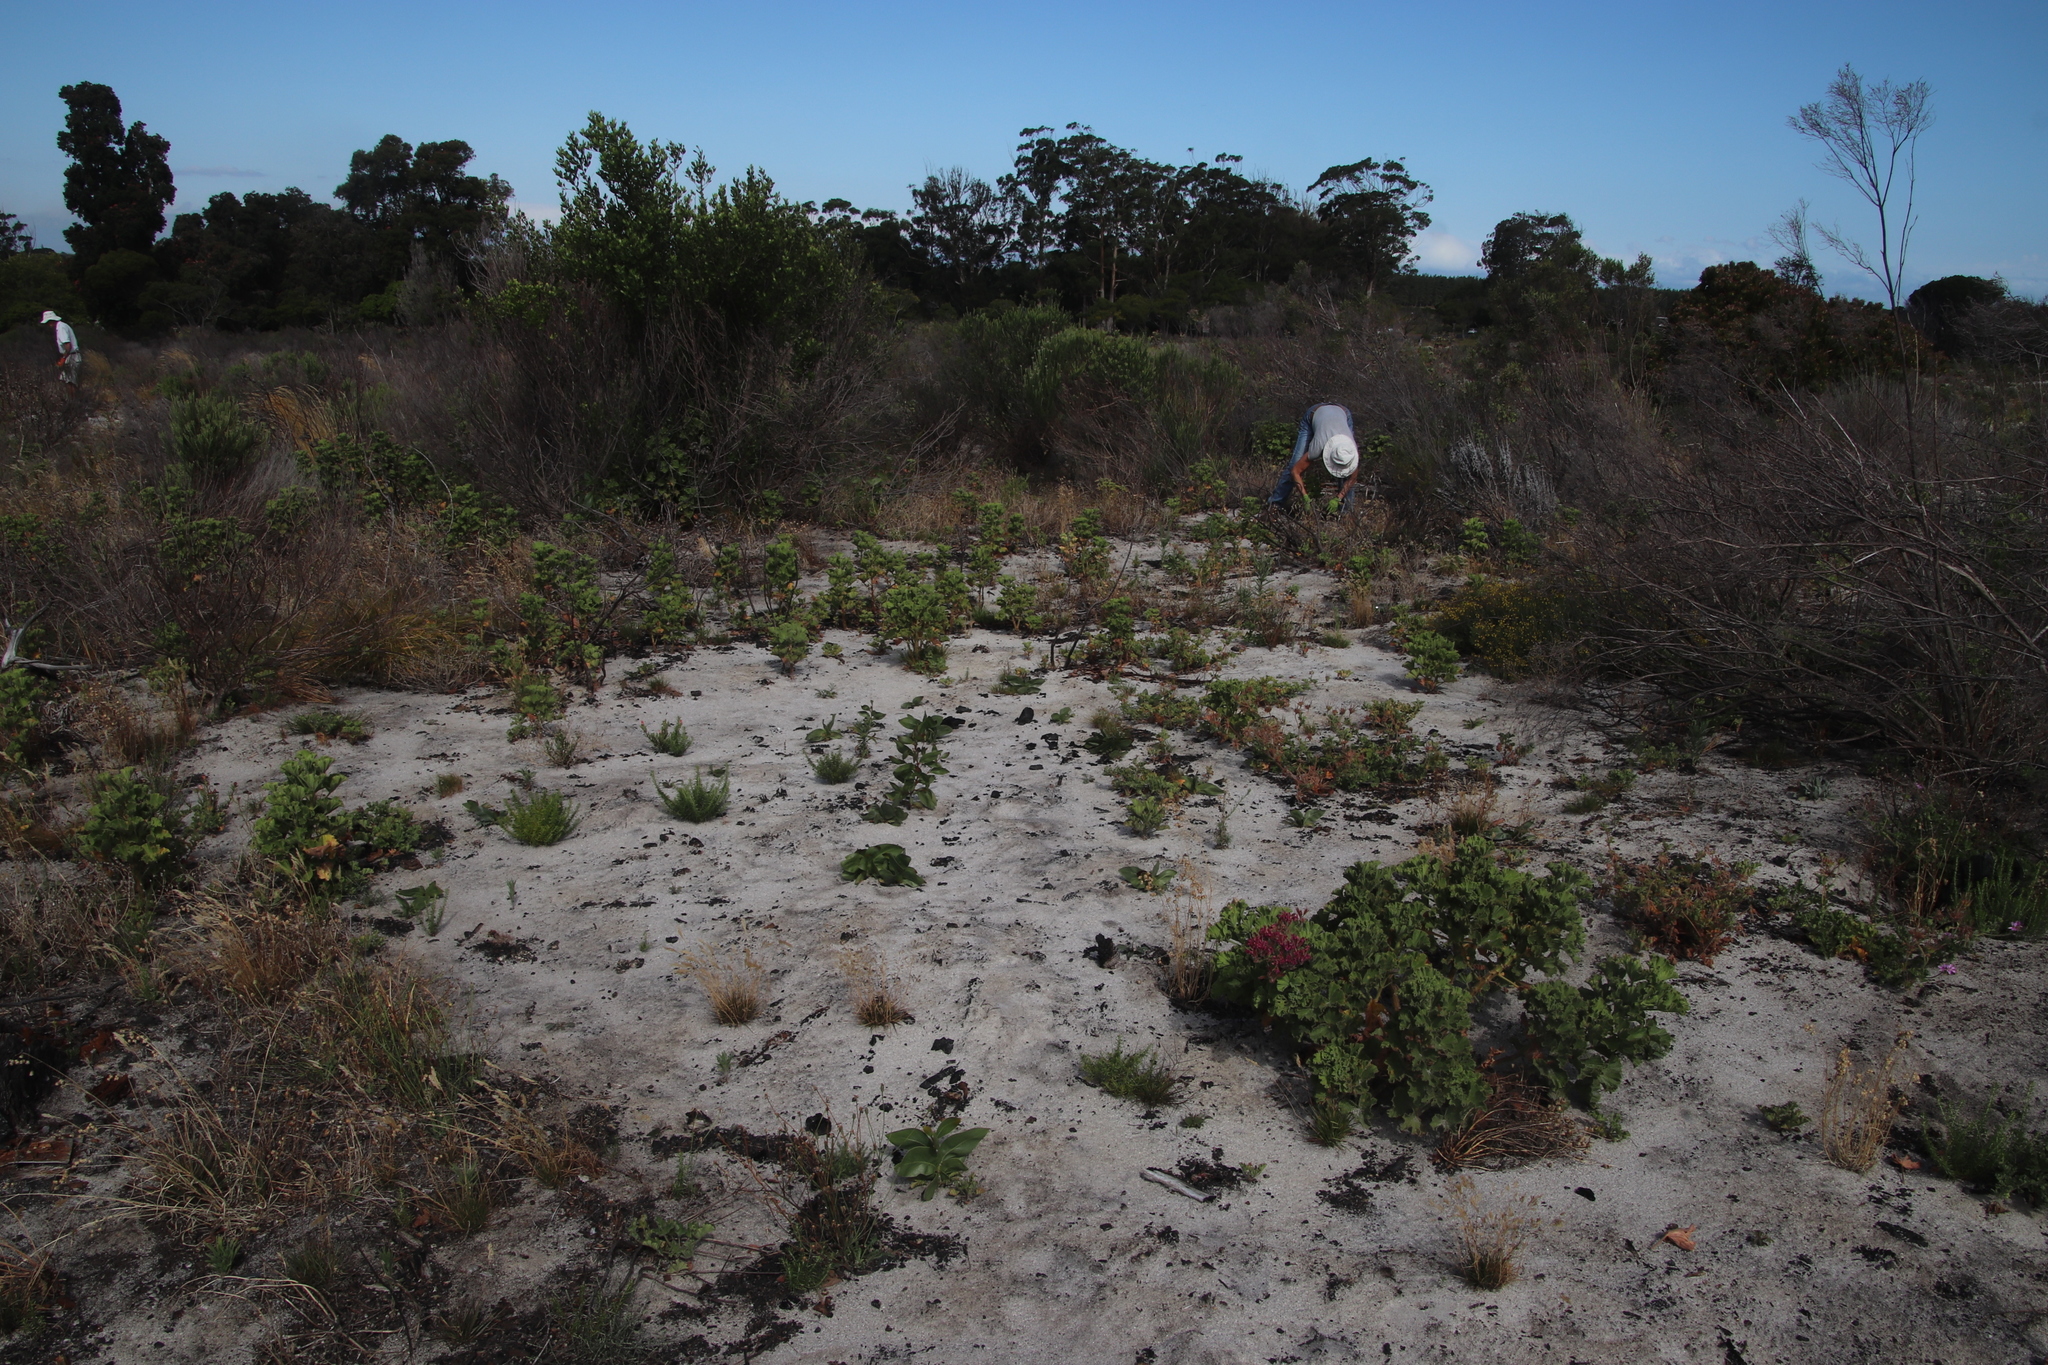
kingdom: Plantae
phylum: Tracheophyta
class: Magnoliopsida
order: Fabales
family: Fabaceae
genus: Acacia
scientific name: Acacia pycnantha
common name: Golden wattle
